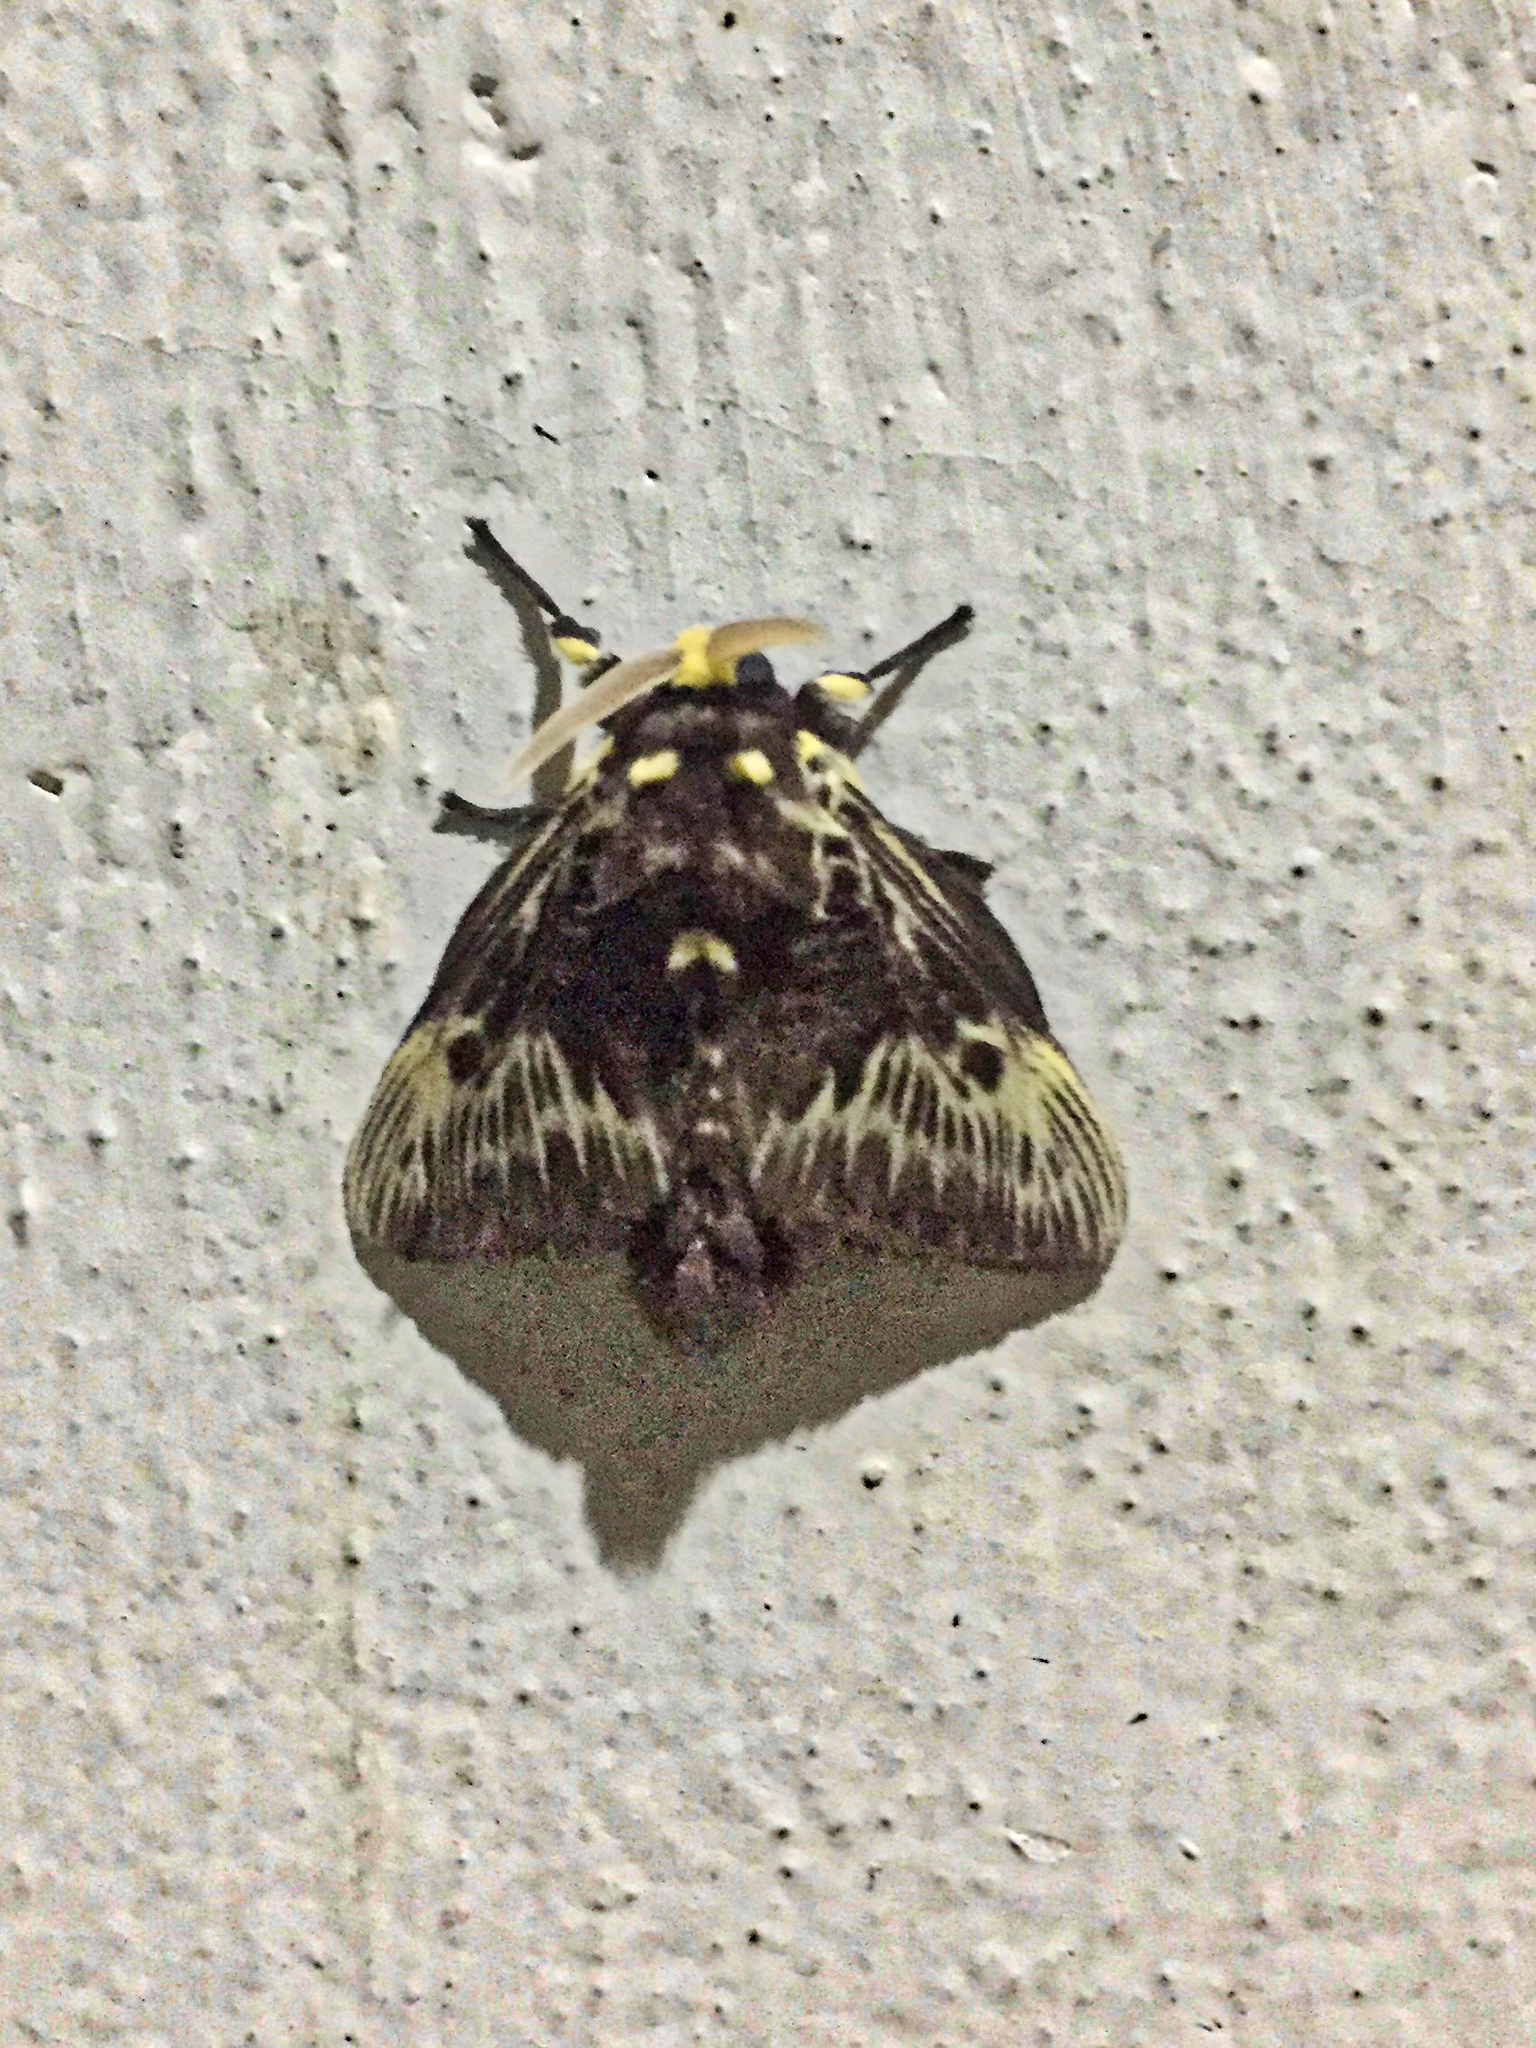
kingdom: Animalia
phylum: Arthropoda
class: Insecta
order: Lepidoptera
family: Megalopygidae
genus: Megalopyge
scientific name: Megalopyge albicollis
